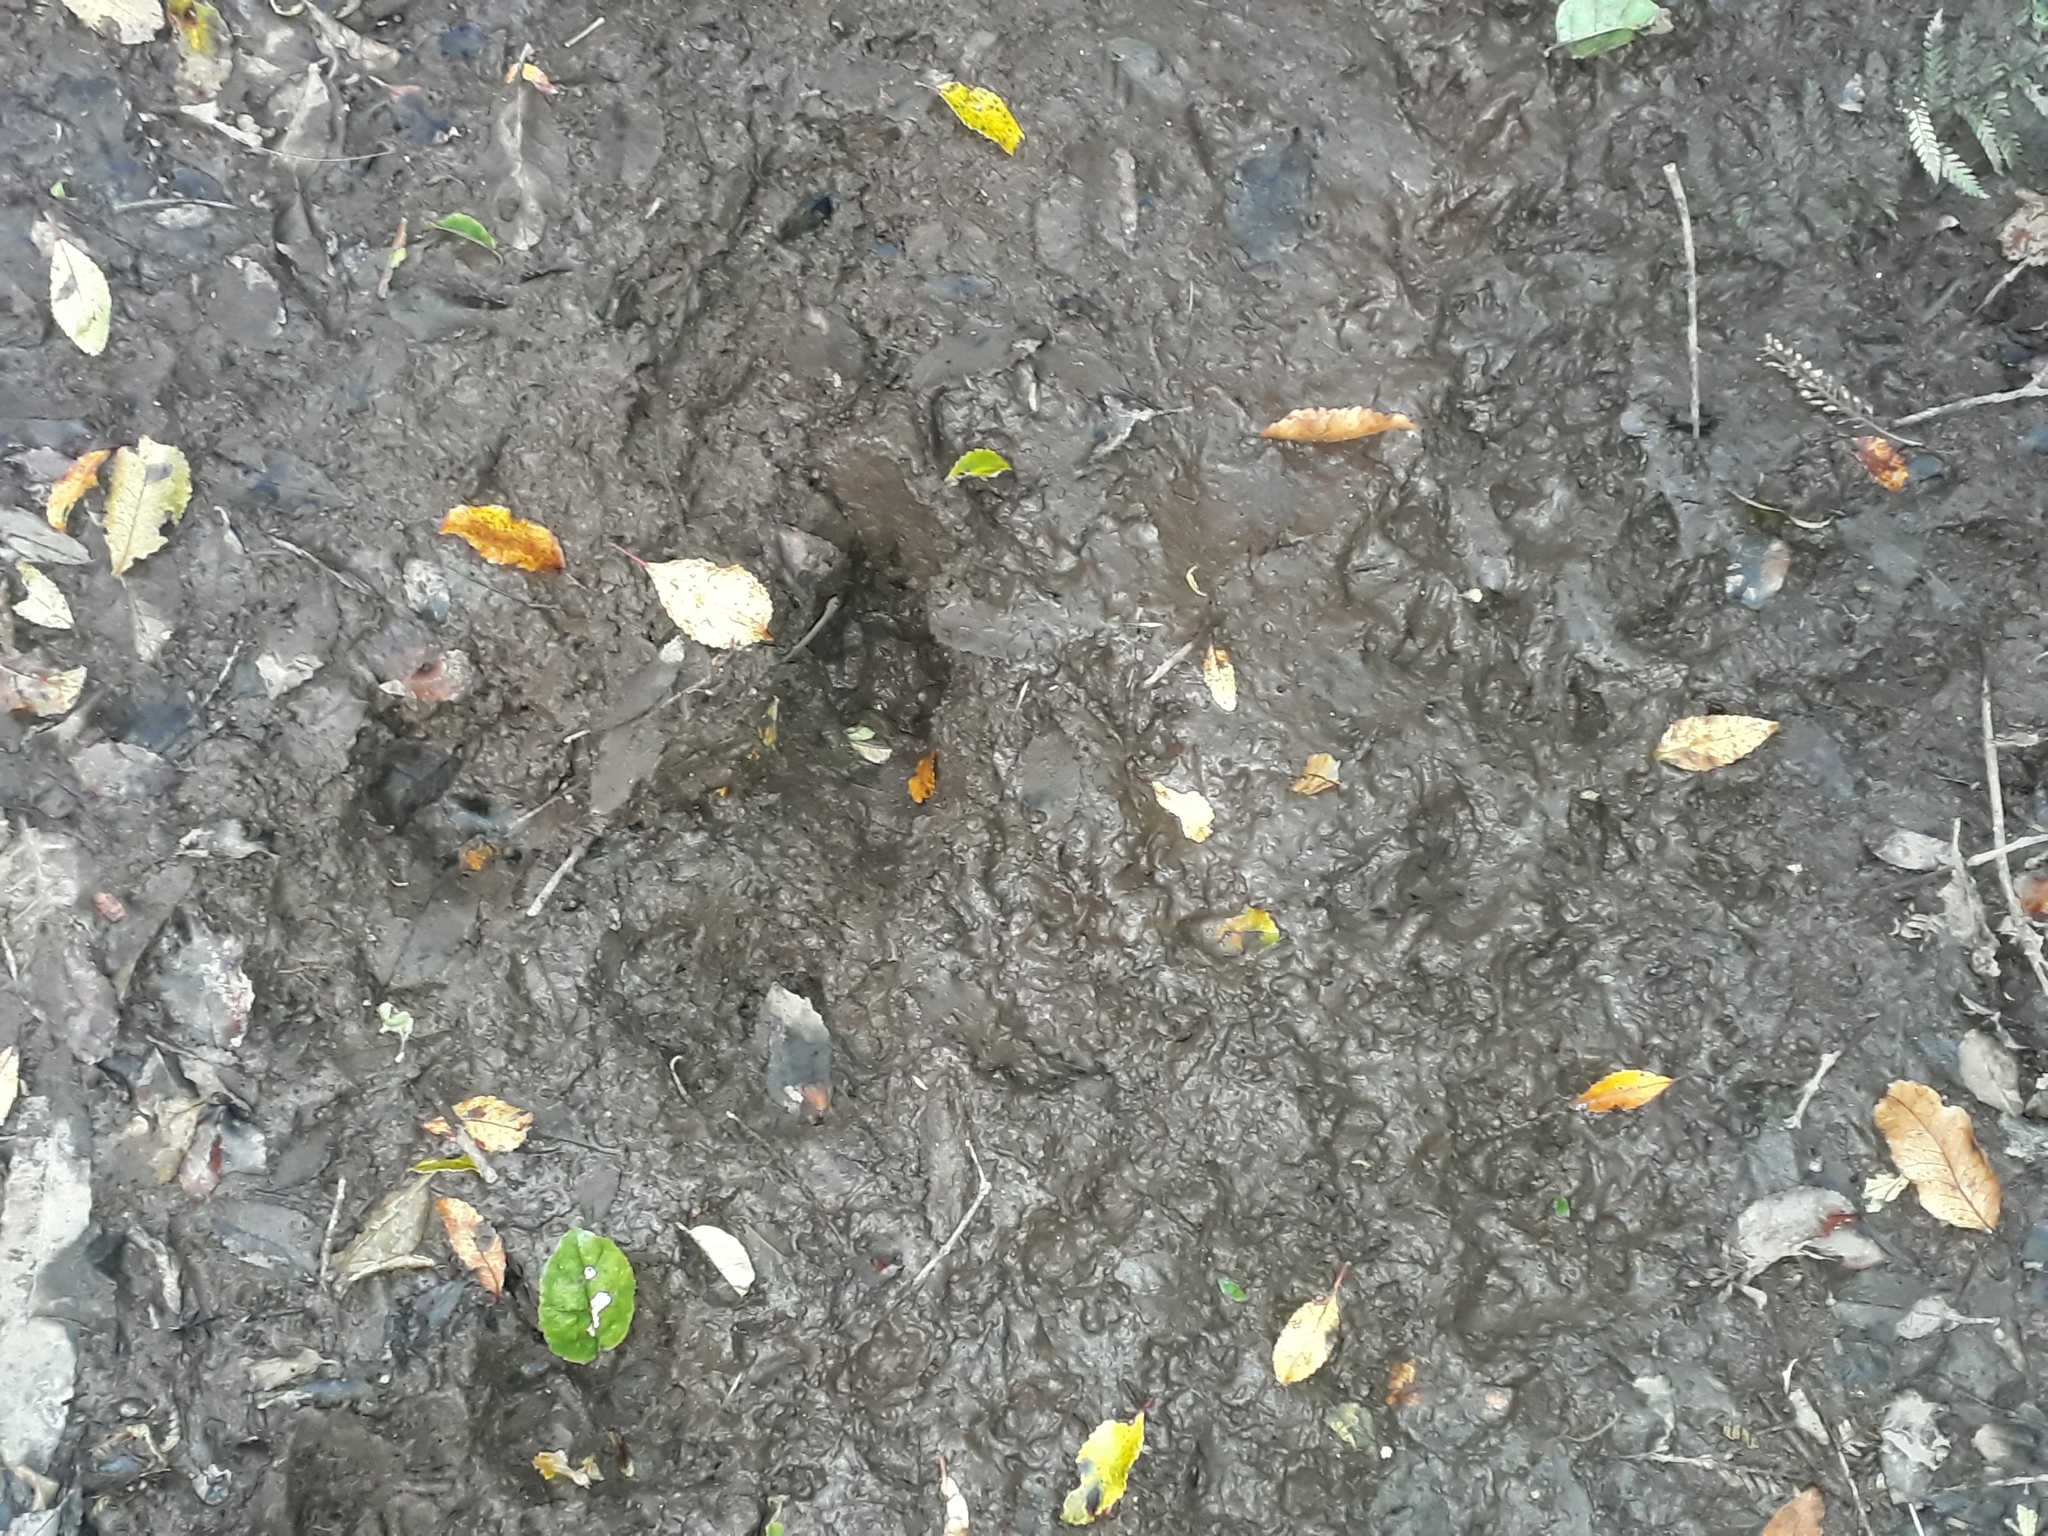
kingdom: Animalia
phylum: Chordata
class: Mammalia
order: Artiodactyla
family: Suidae
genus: Sus
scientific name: Sus scrofa
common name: Wild boar
